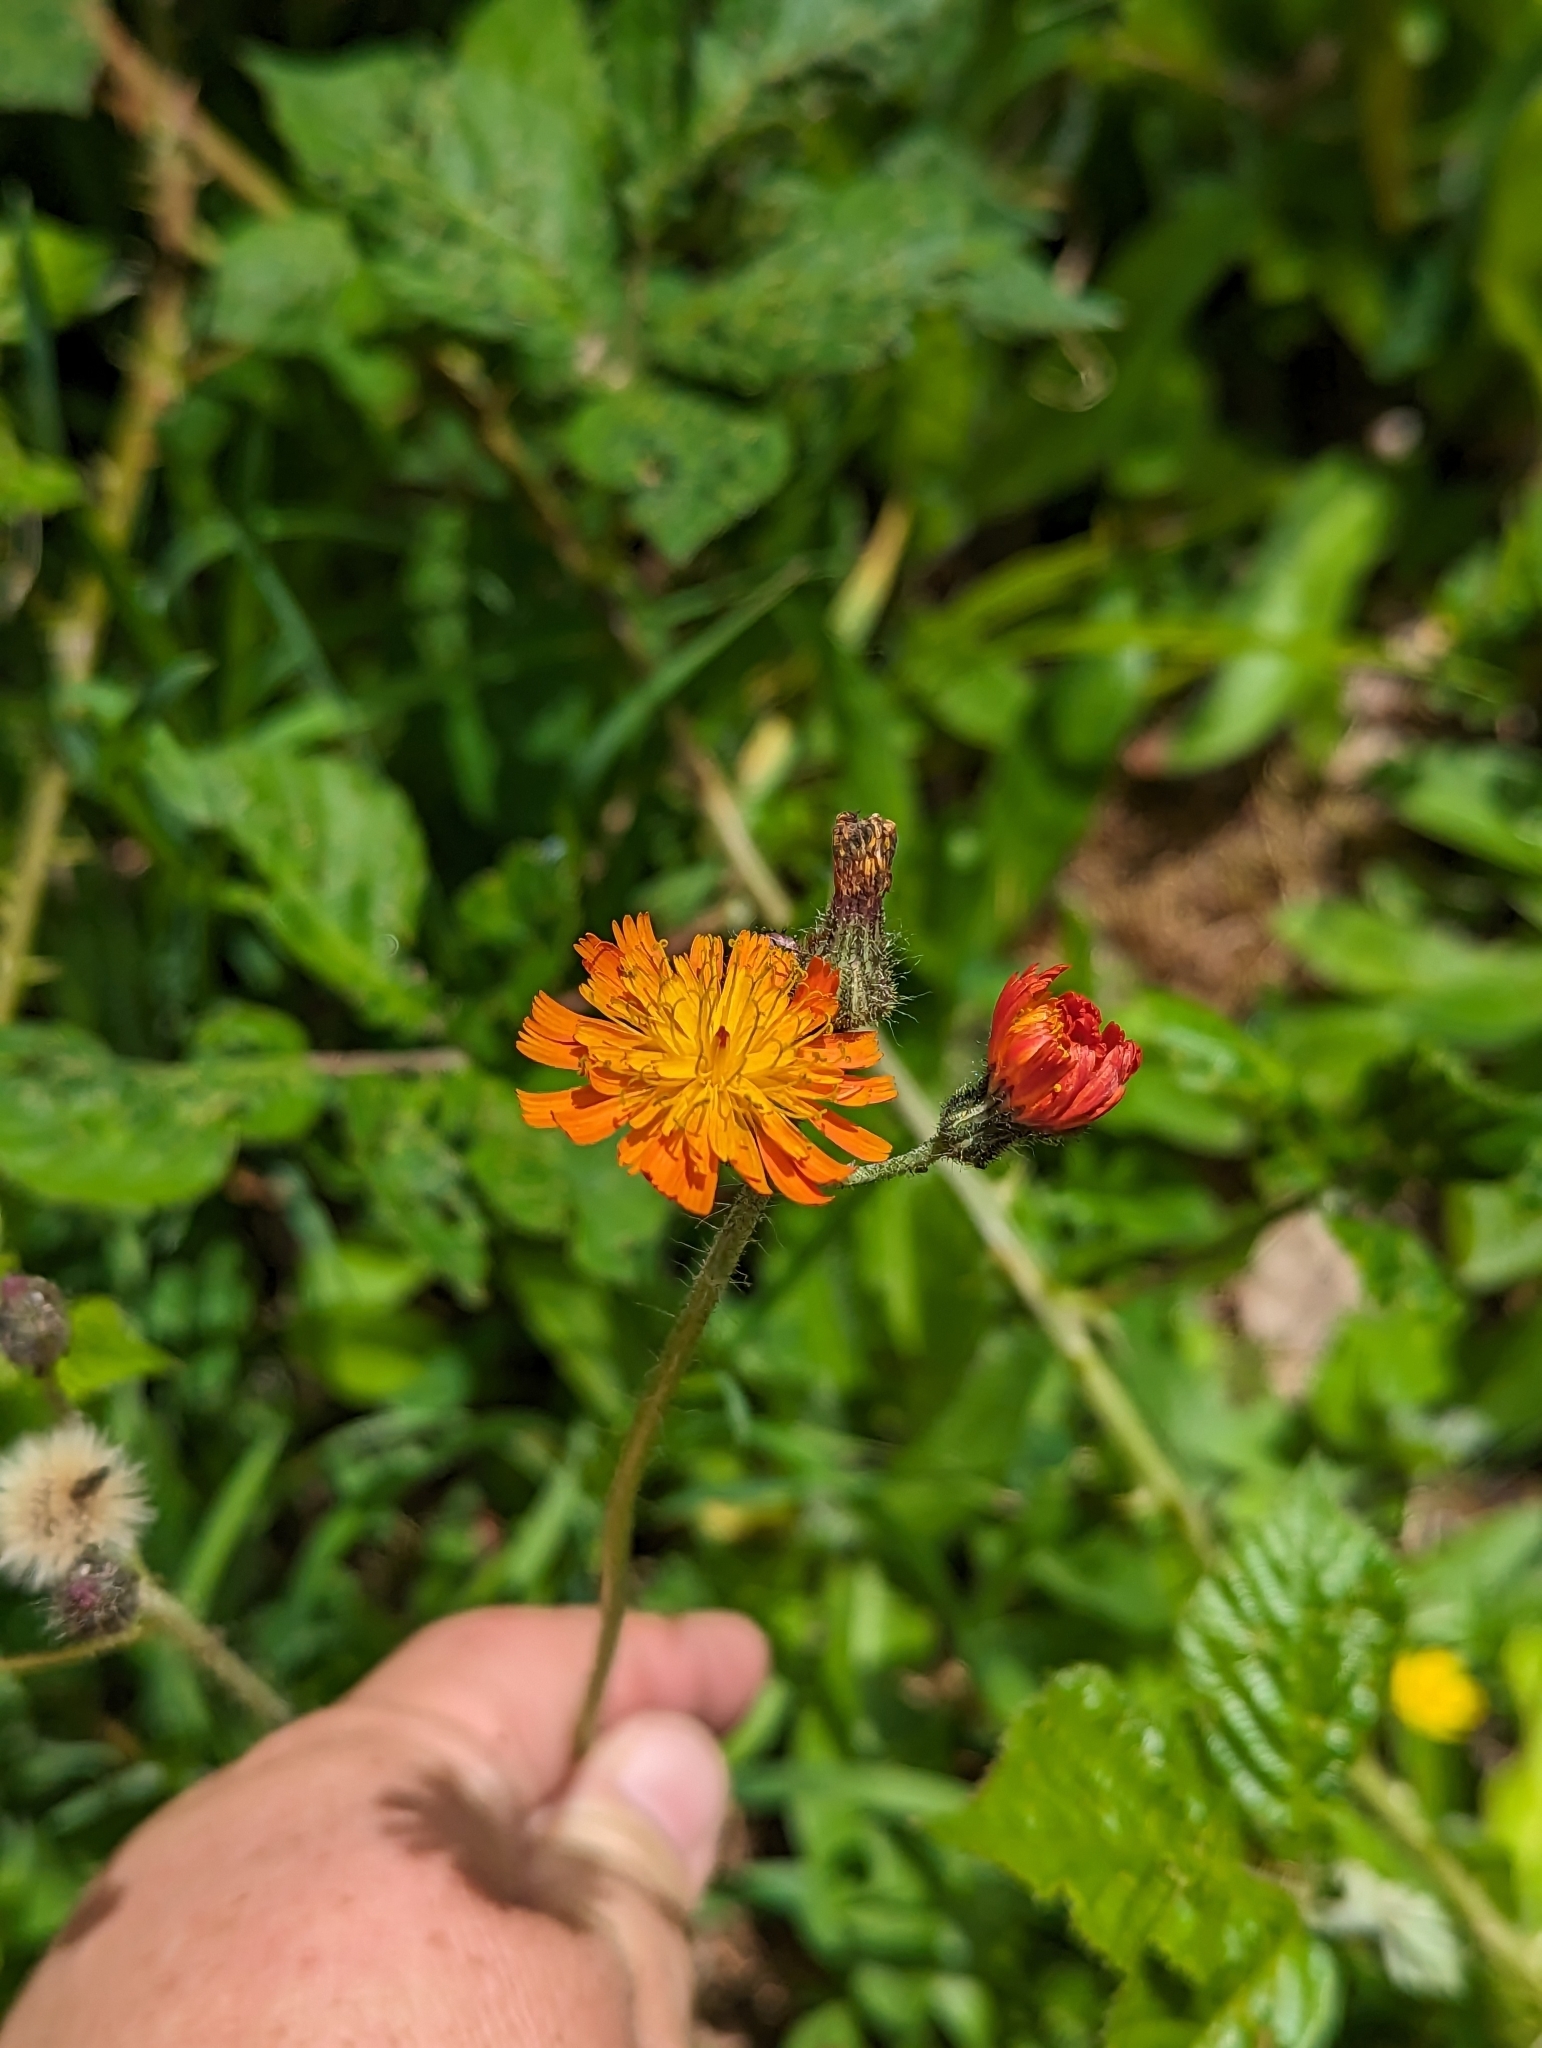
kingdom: Plantae
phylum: Tracheophyta
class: Magnoliopsida
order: Asterales
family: Asteraceae
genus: Pilosella
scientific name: Pilosella aurantiaca
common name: Fox-and-cubs
